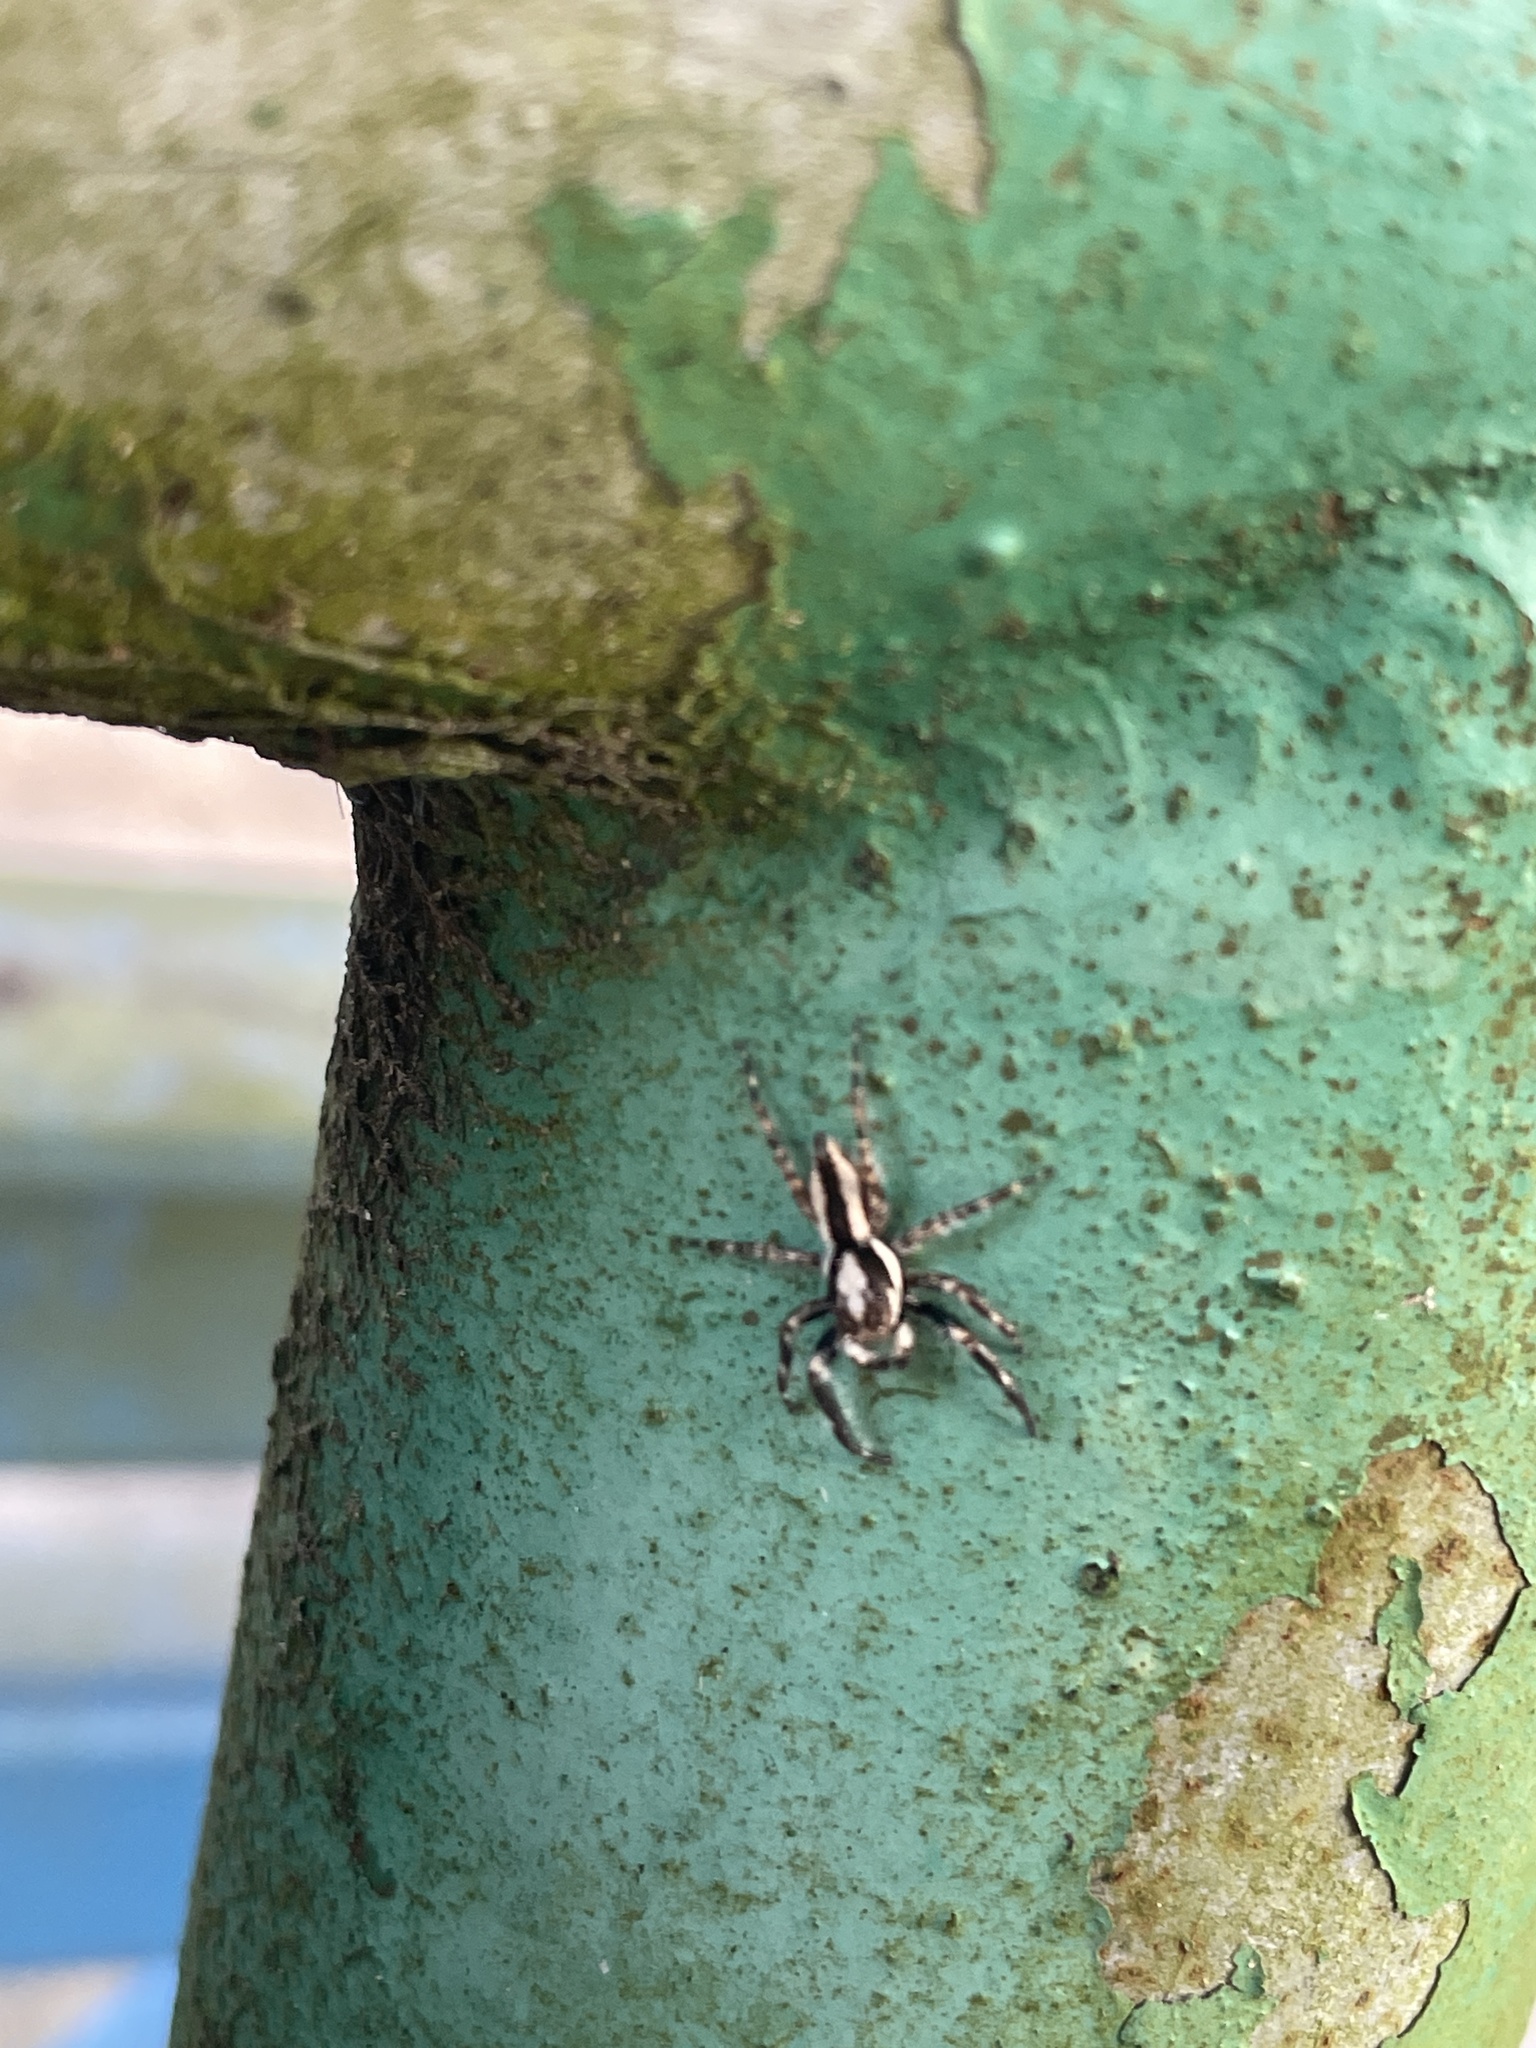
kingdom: Animalia
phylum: Arthropoda
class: Arachnida
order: Araneae
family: Salticidae
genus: Menemerus
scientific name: Menemerus bivittatus
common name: Gray wall jumper
